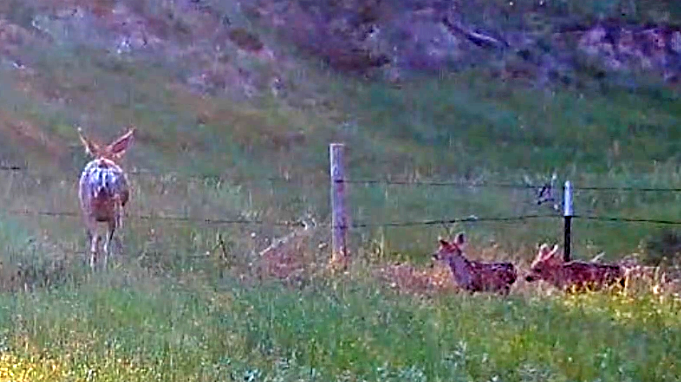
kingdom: Animalia
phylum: Chordata
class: Mammalia
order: Artiodactyla
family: Cervidae
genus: Odocoileus
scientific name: Odocoileus hemionus
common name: Mule deer
